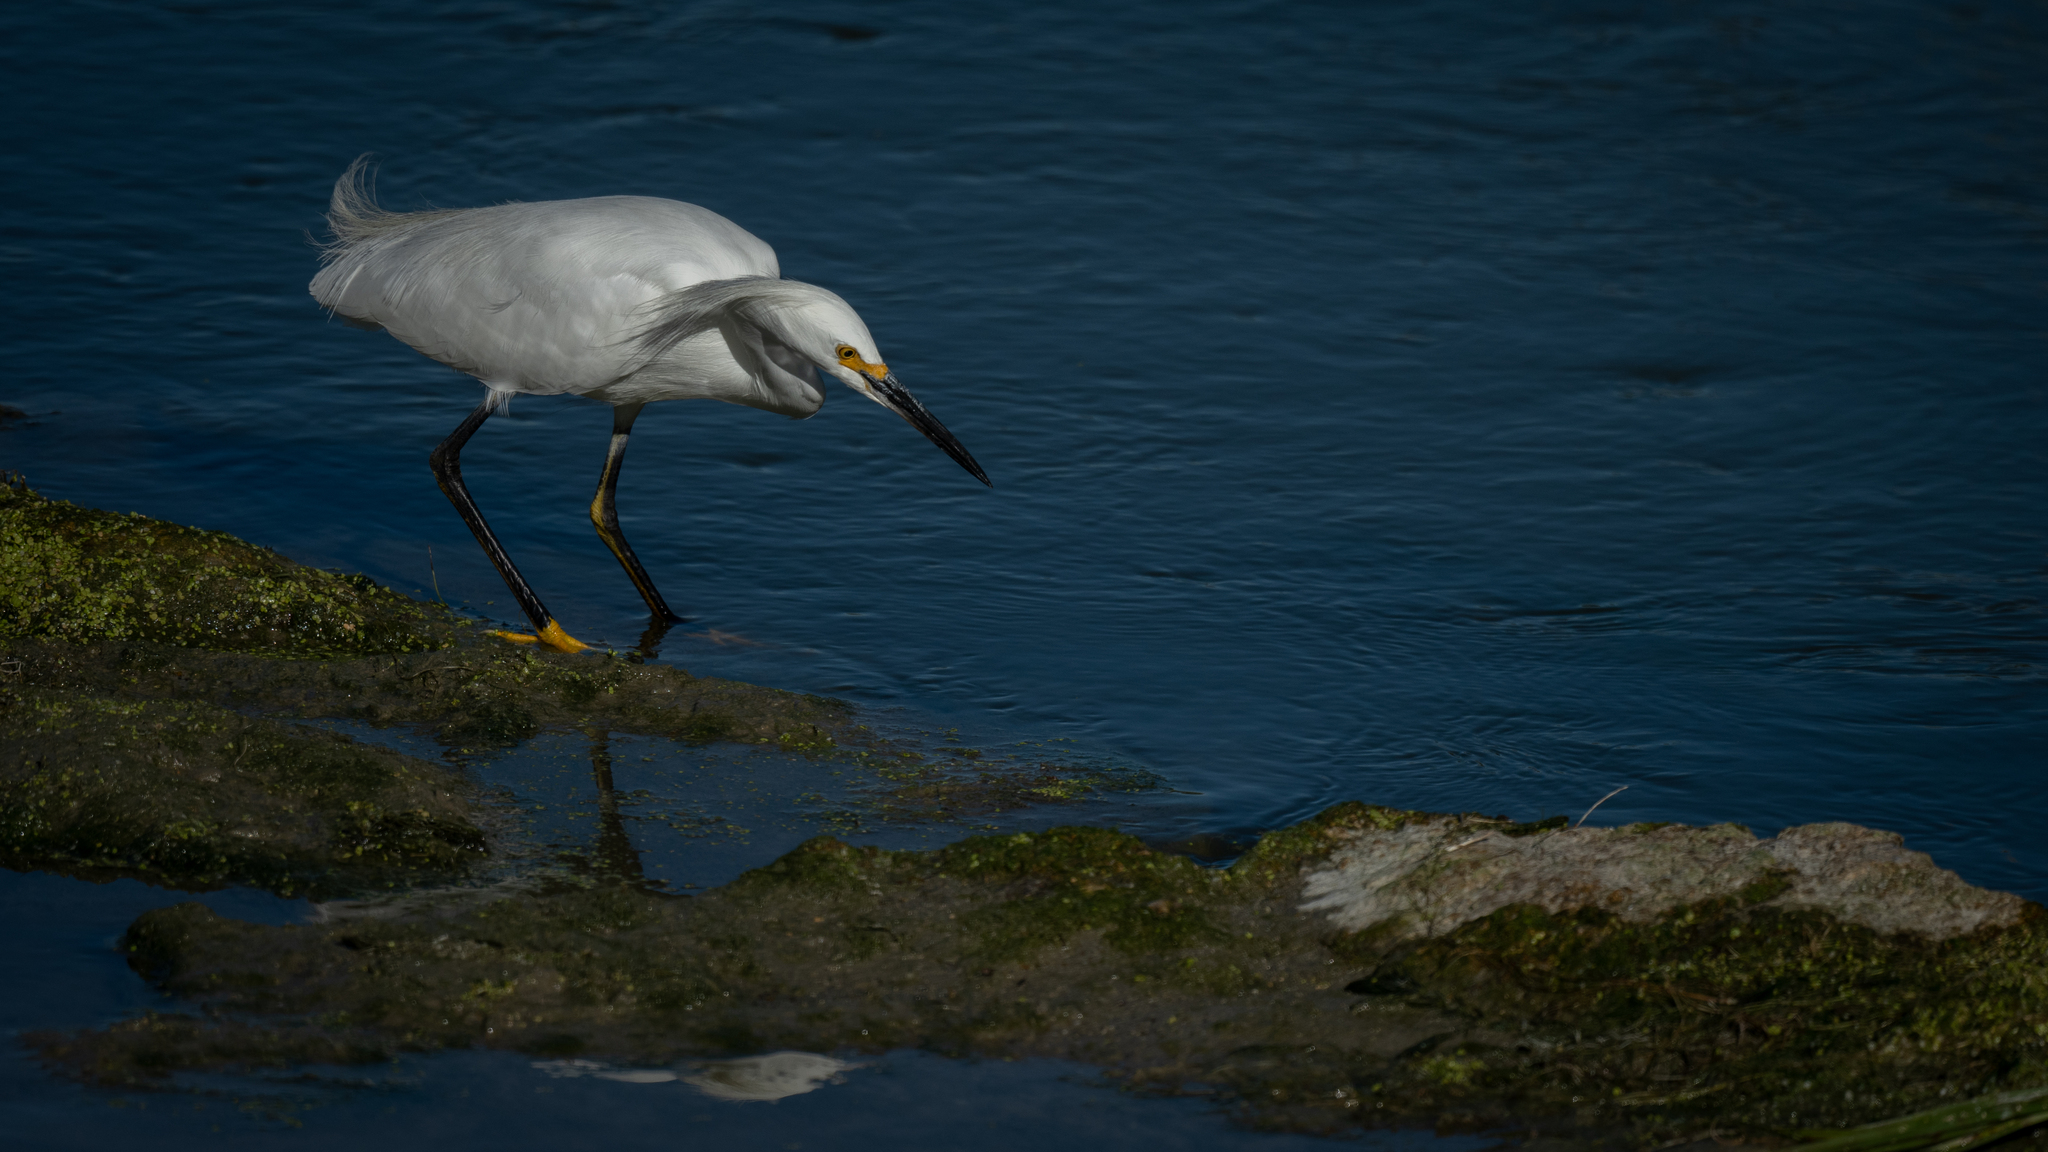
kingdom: Animalia
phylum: Chordata
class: Aves
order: Pelecaniformes
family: Ardeidae
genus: Egretta
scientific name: Egretta thula
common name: Snowy egret
